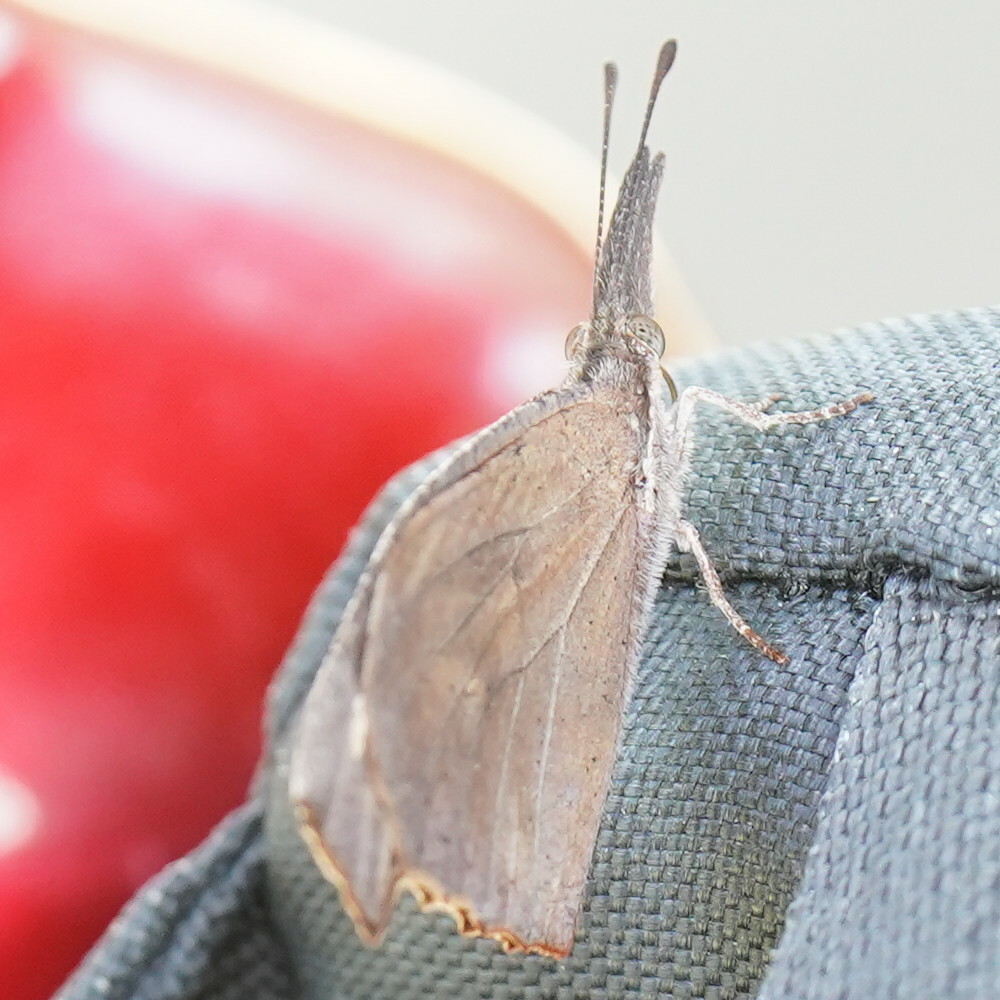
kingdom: Animalia
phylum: Arthropoda
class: Insecta
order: Lepidoptera
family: Nymphalidae
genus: Libytheana
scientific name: Libytheana carinenta
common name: American snout
